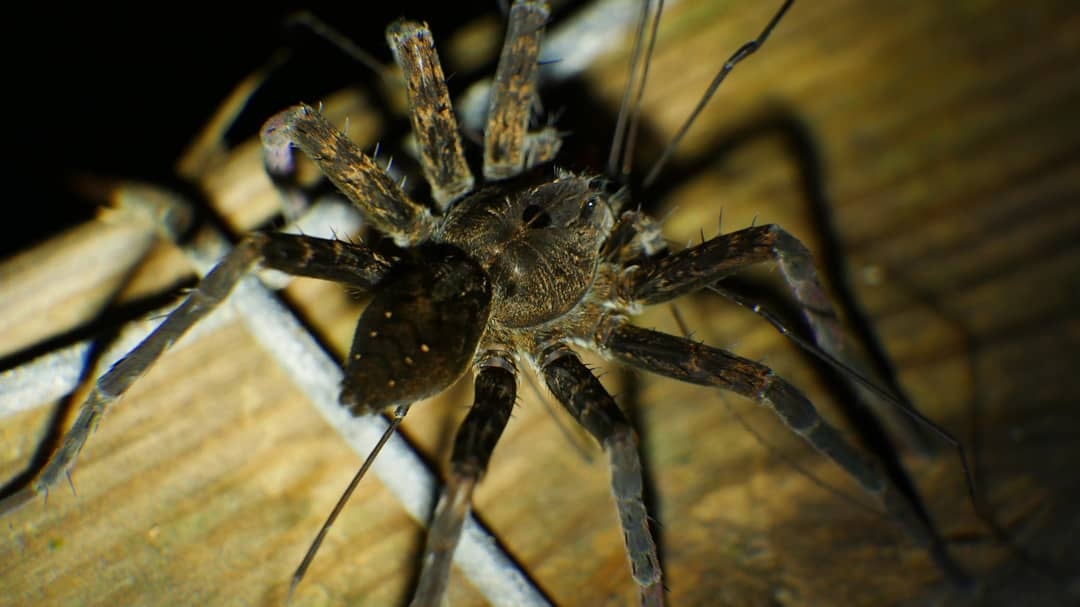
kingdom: Animalia
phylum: Arthropoda
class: Arachnida
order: Araneae
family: Pisauridae
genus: Dolomedes
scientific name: Dolomedes vittatus
